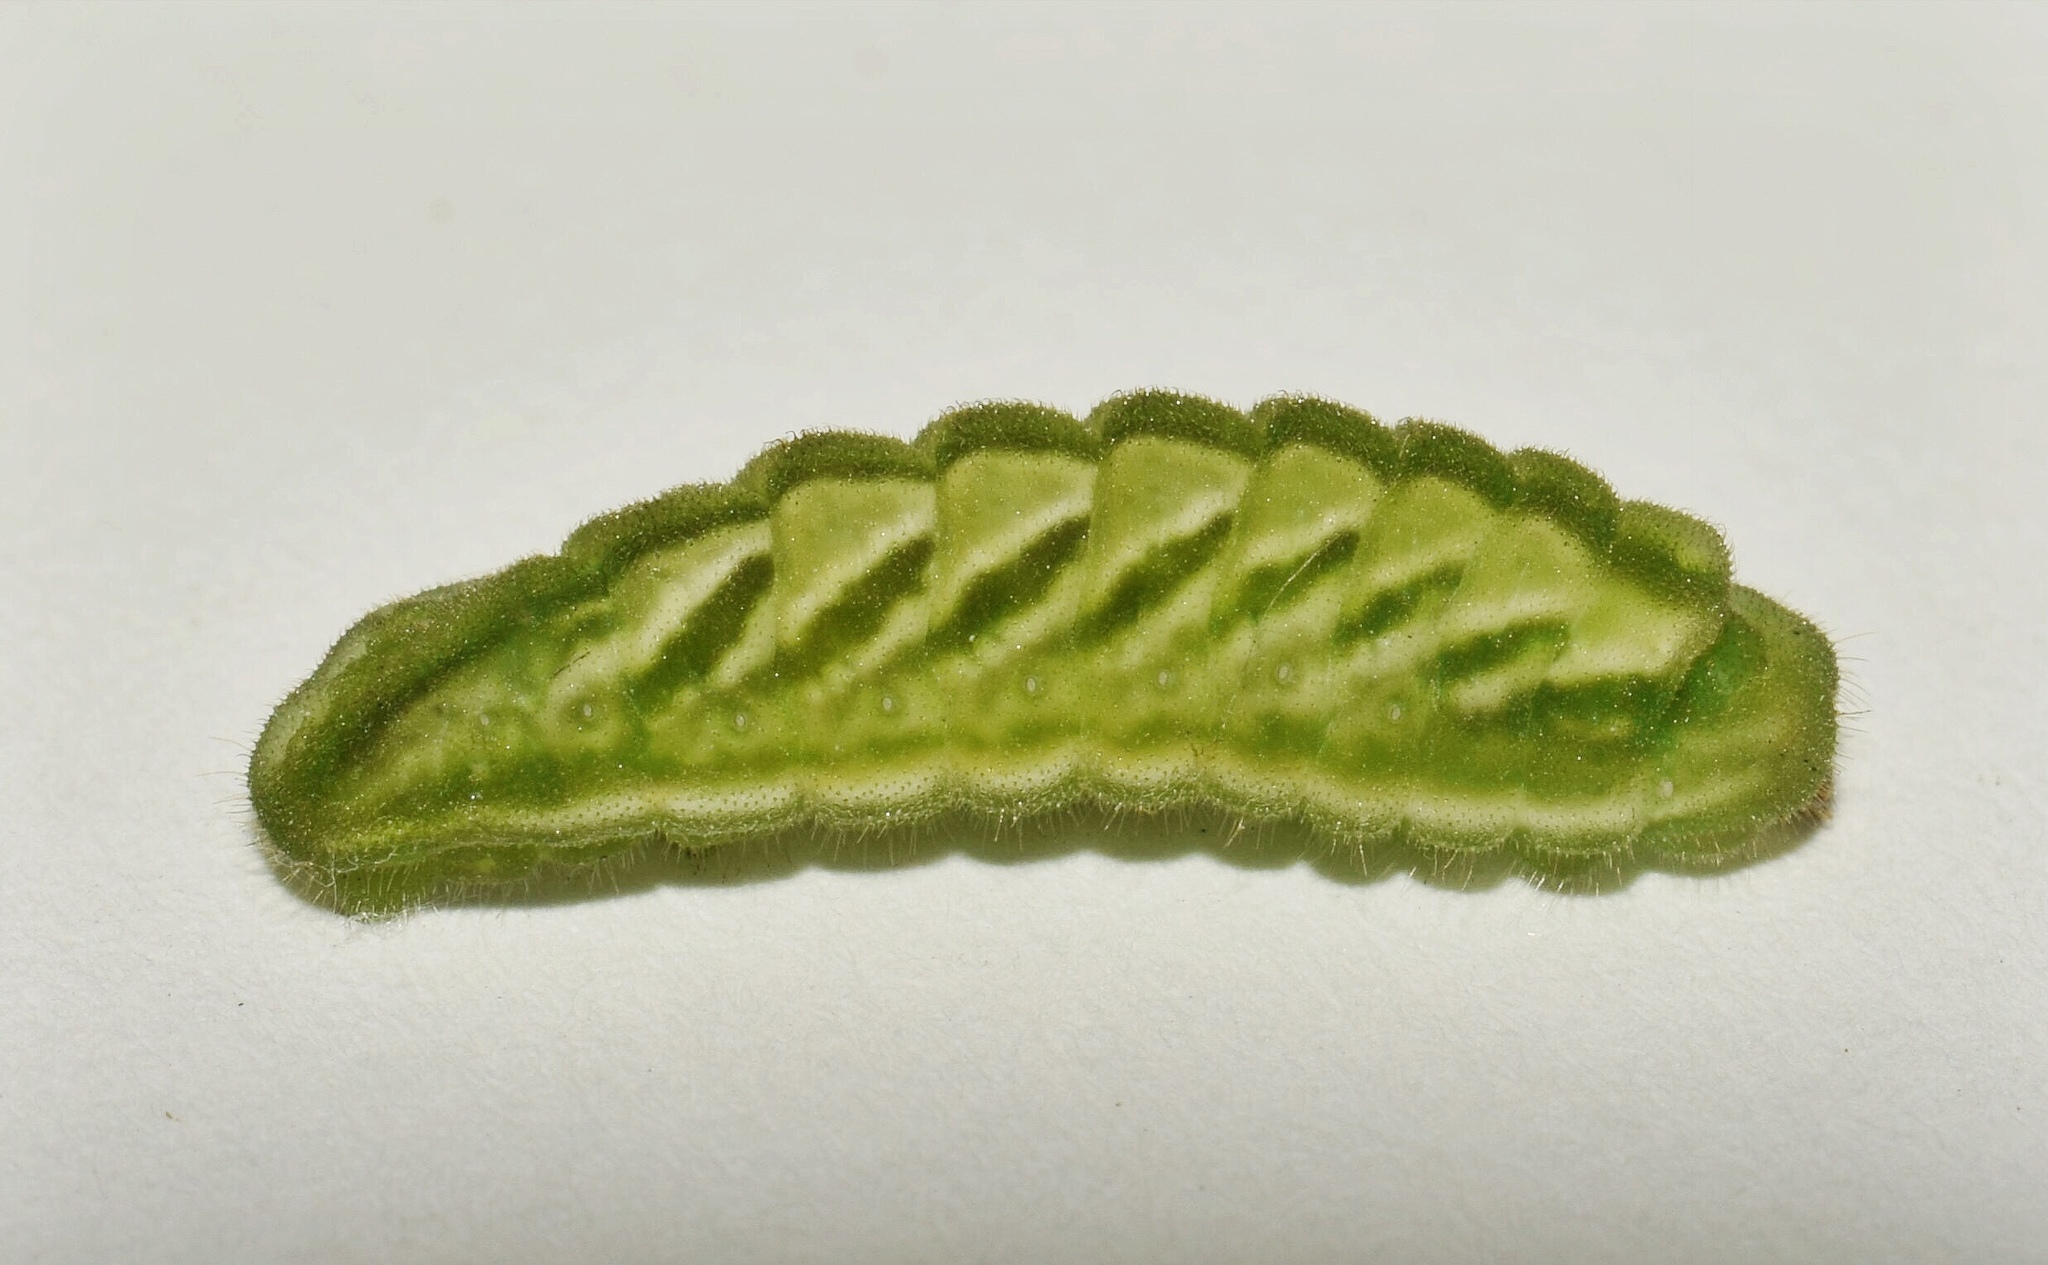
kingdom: Animalia
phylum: Arthropoda
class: Insecta
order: Lepidoptera
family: Lycaenidae
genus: Anthene
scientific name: Anthene larydas
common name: Forest hairtail
